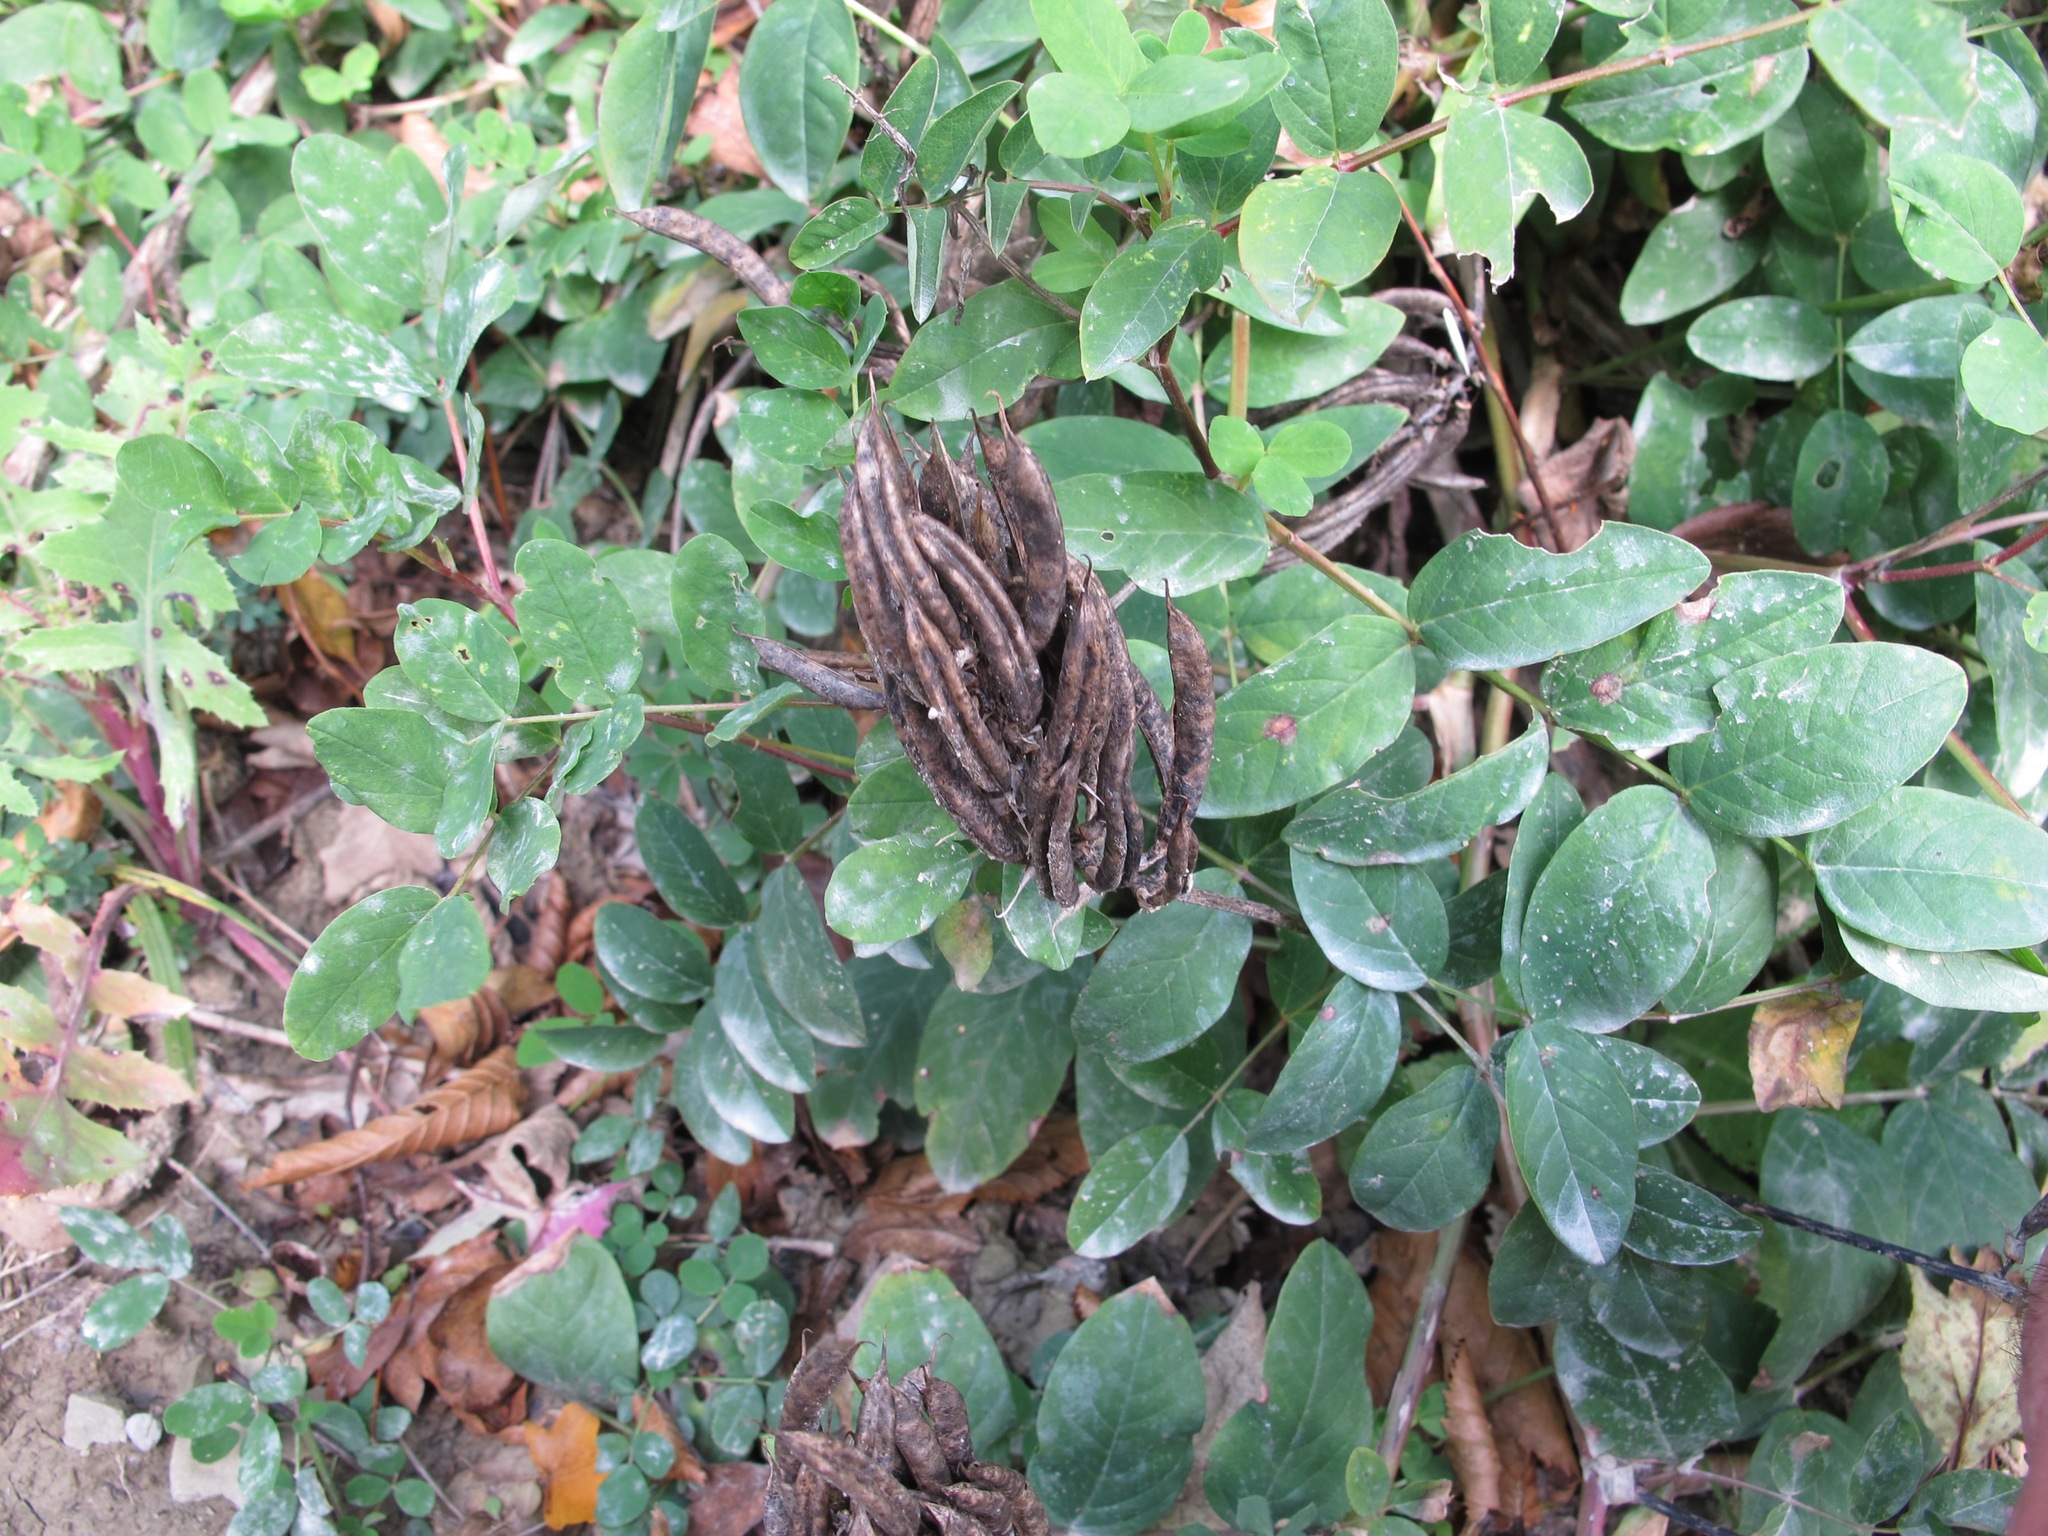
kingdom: Plantae
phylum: Tracheophyta
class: Magnoliopsida
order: Fabales
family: Fabaceae
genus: Astragalus
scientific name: Astragalus glycyphyllos
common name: Wild liquorice
